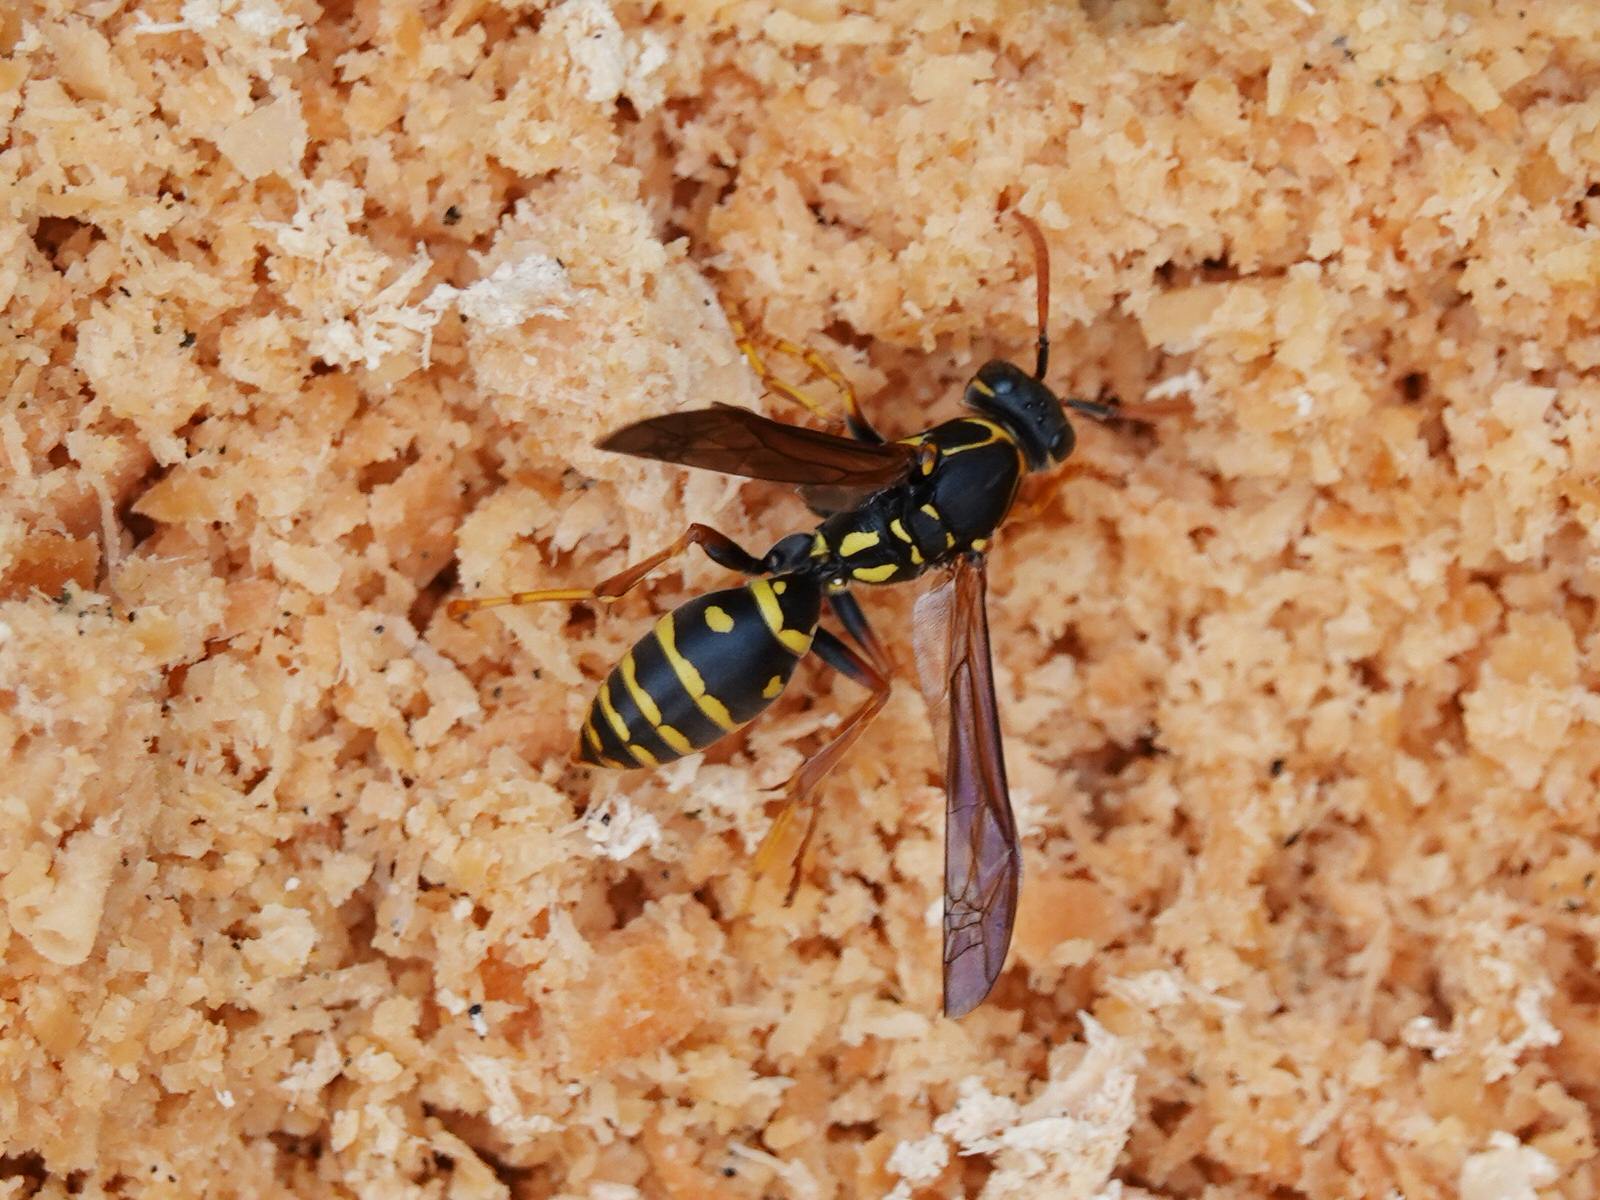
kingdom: Animalia
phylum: Arthropoda
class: Insecta
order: Hymenoptera
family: Eumenidae
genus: Polistes
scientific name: Polistes chinensis
